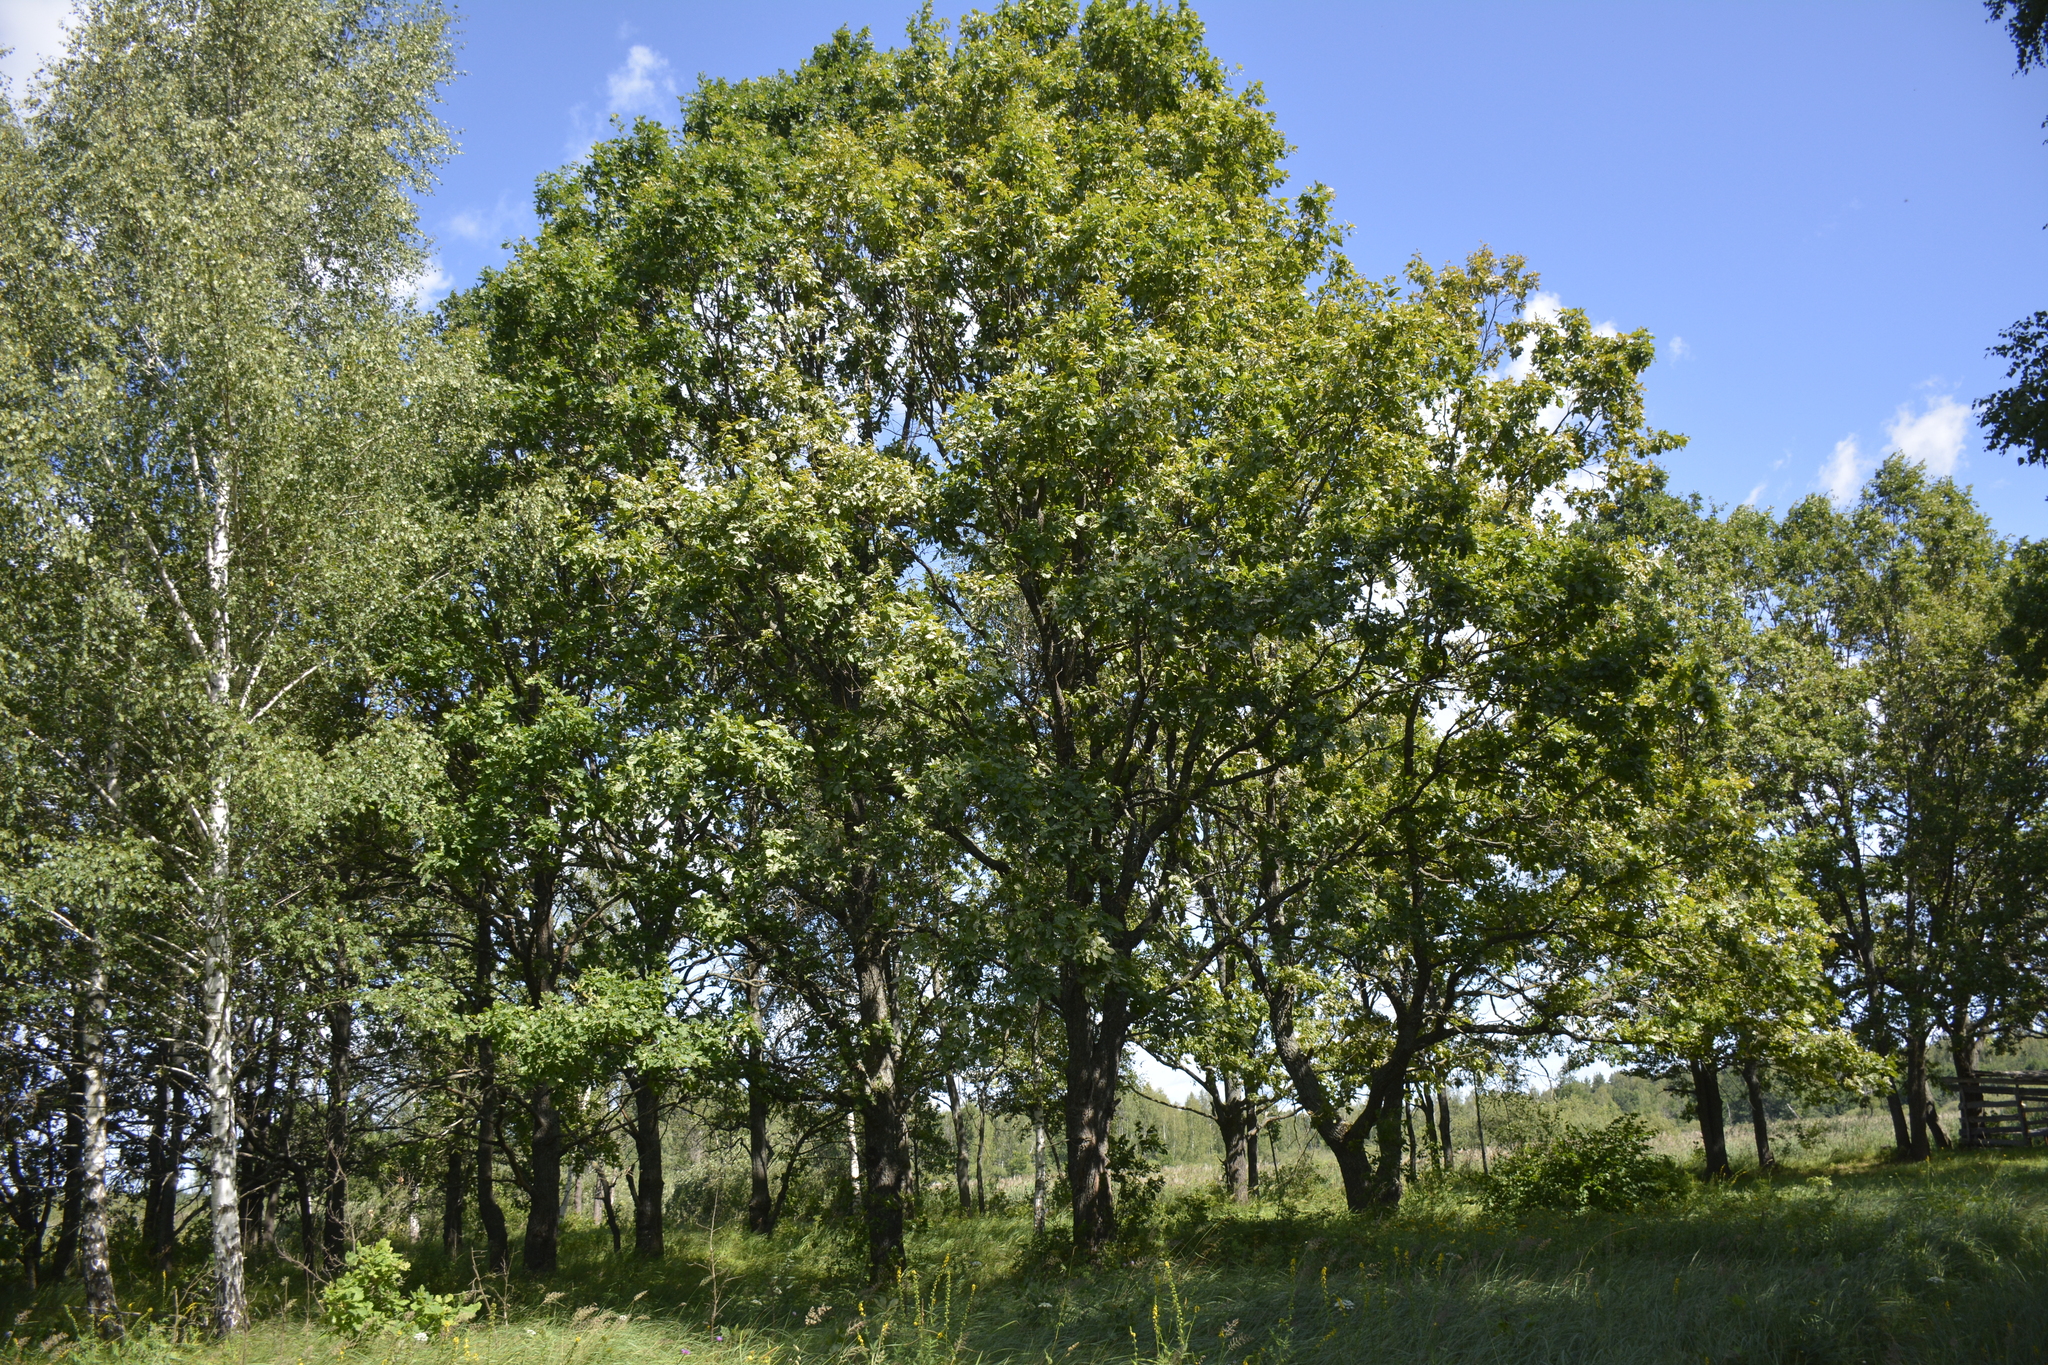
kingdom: Plantae
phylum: Tracheophyta
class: Magnoliopsida
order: Fagales
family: Fagaceae
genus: Quercus
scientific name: Quercus robur
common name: Pedunculate oak
